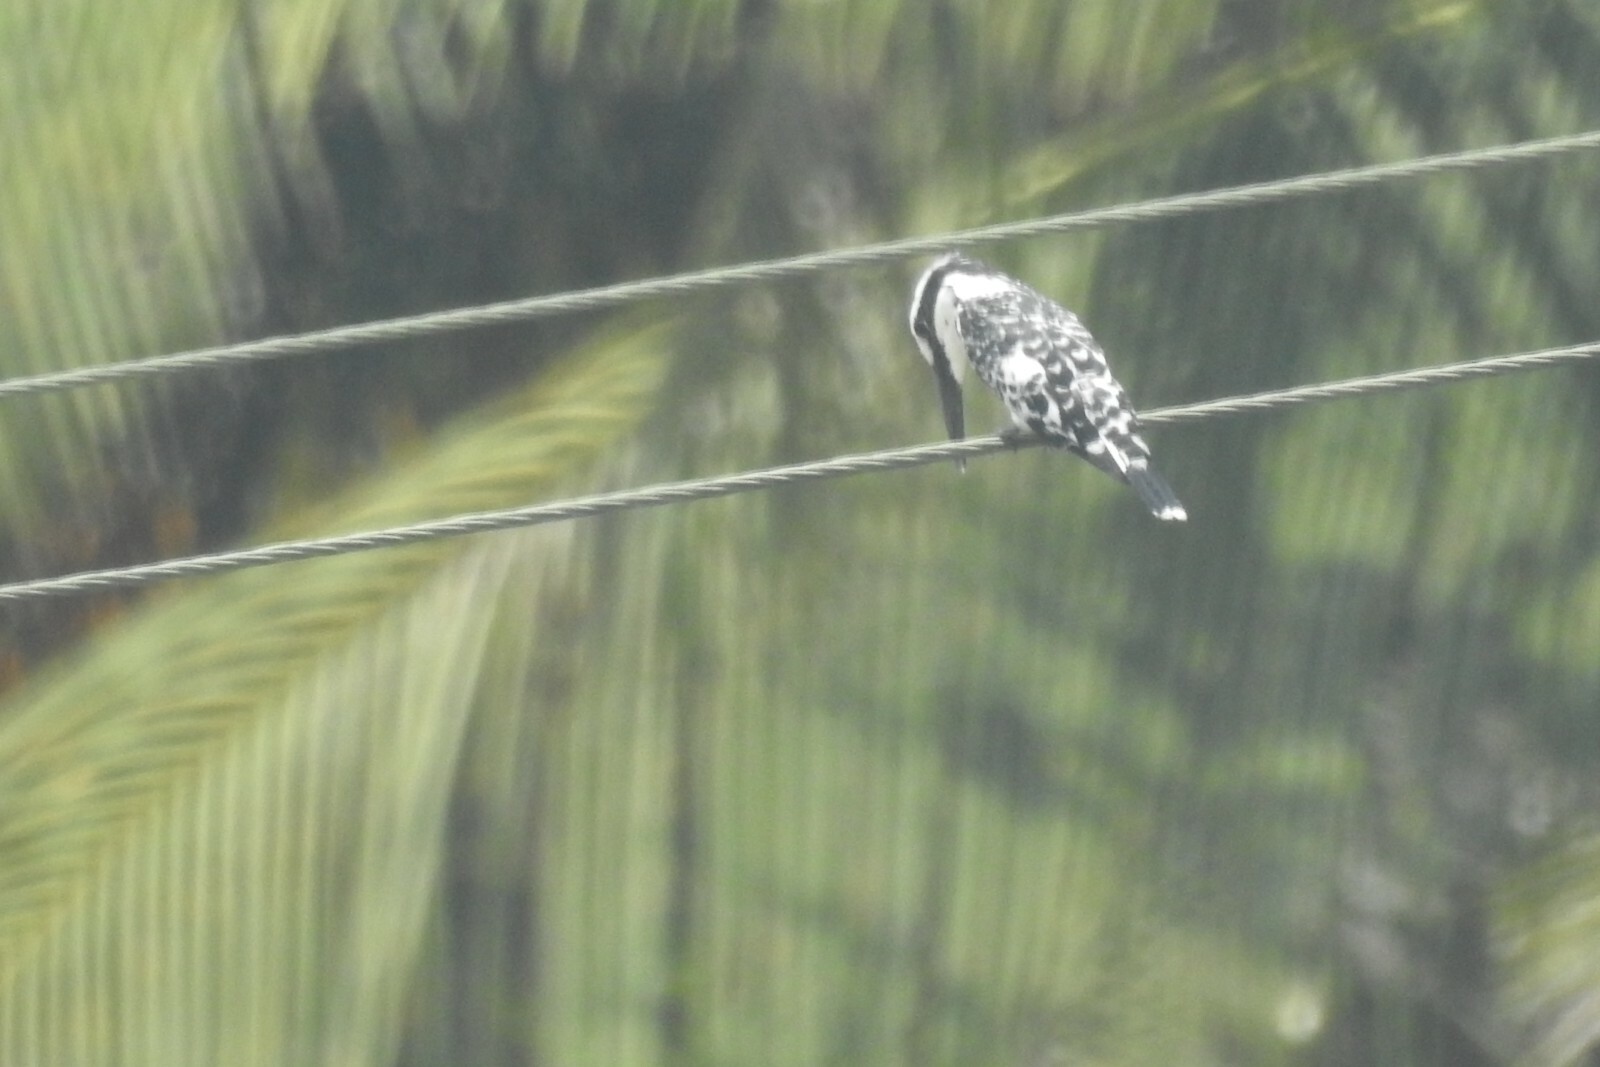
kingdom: Animalia
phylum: Chordata
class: Aves
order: Coraciiformes
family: Alcedinidae
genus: Ceryle
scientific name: Ceryle rudis
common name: Pied kingfisher
